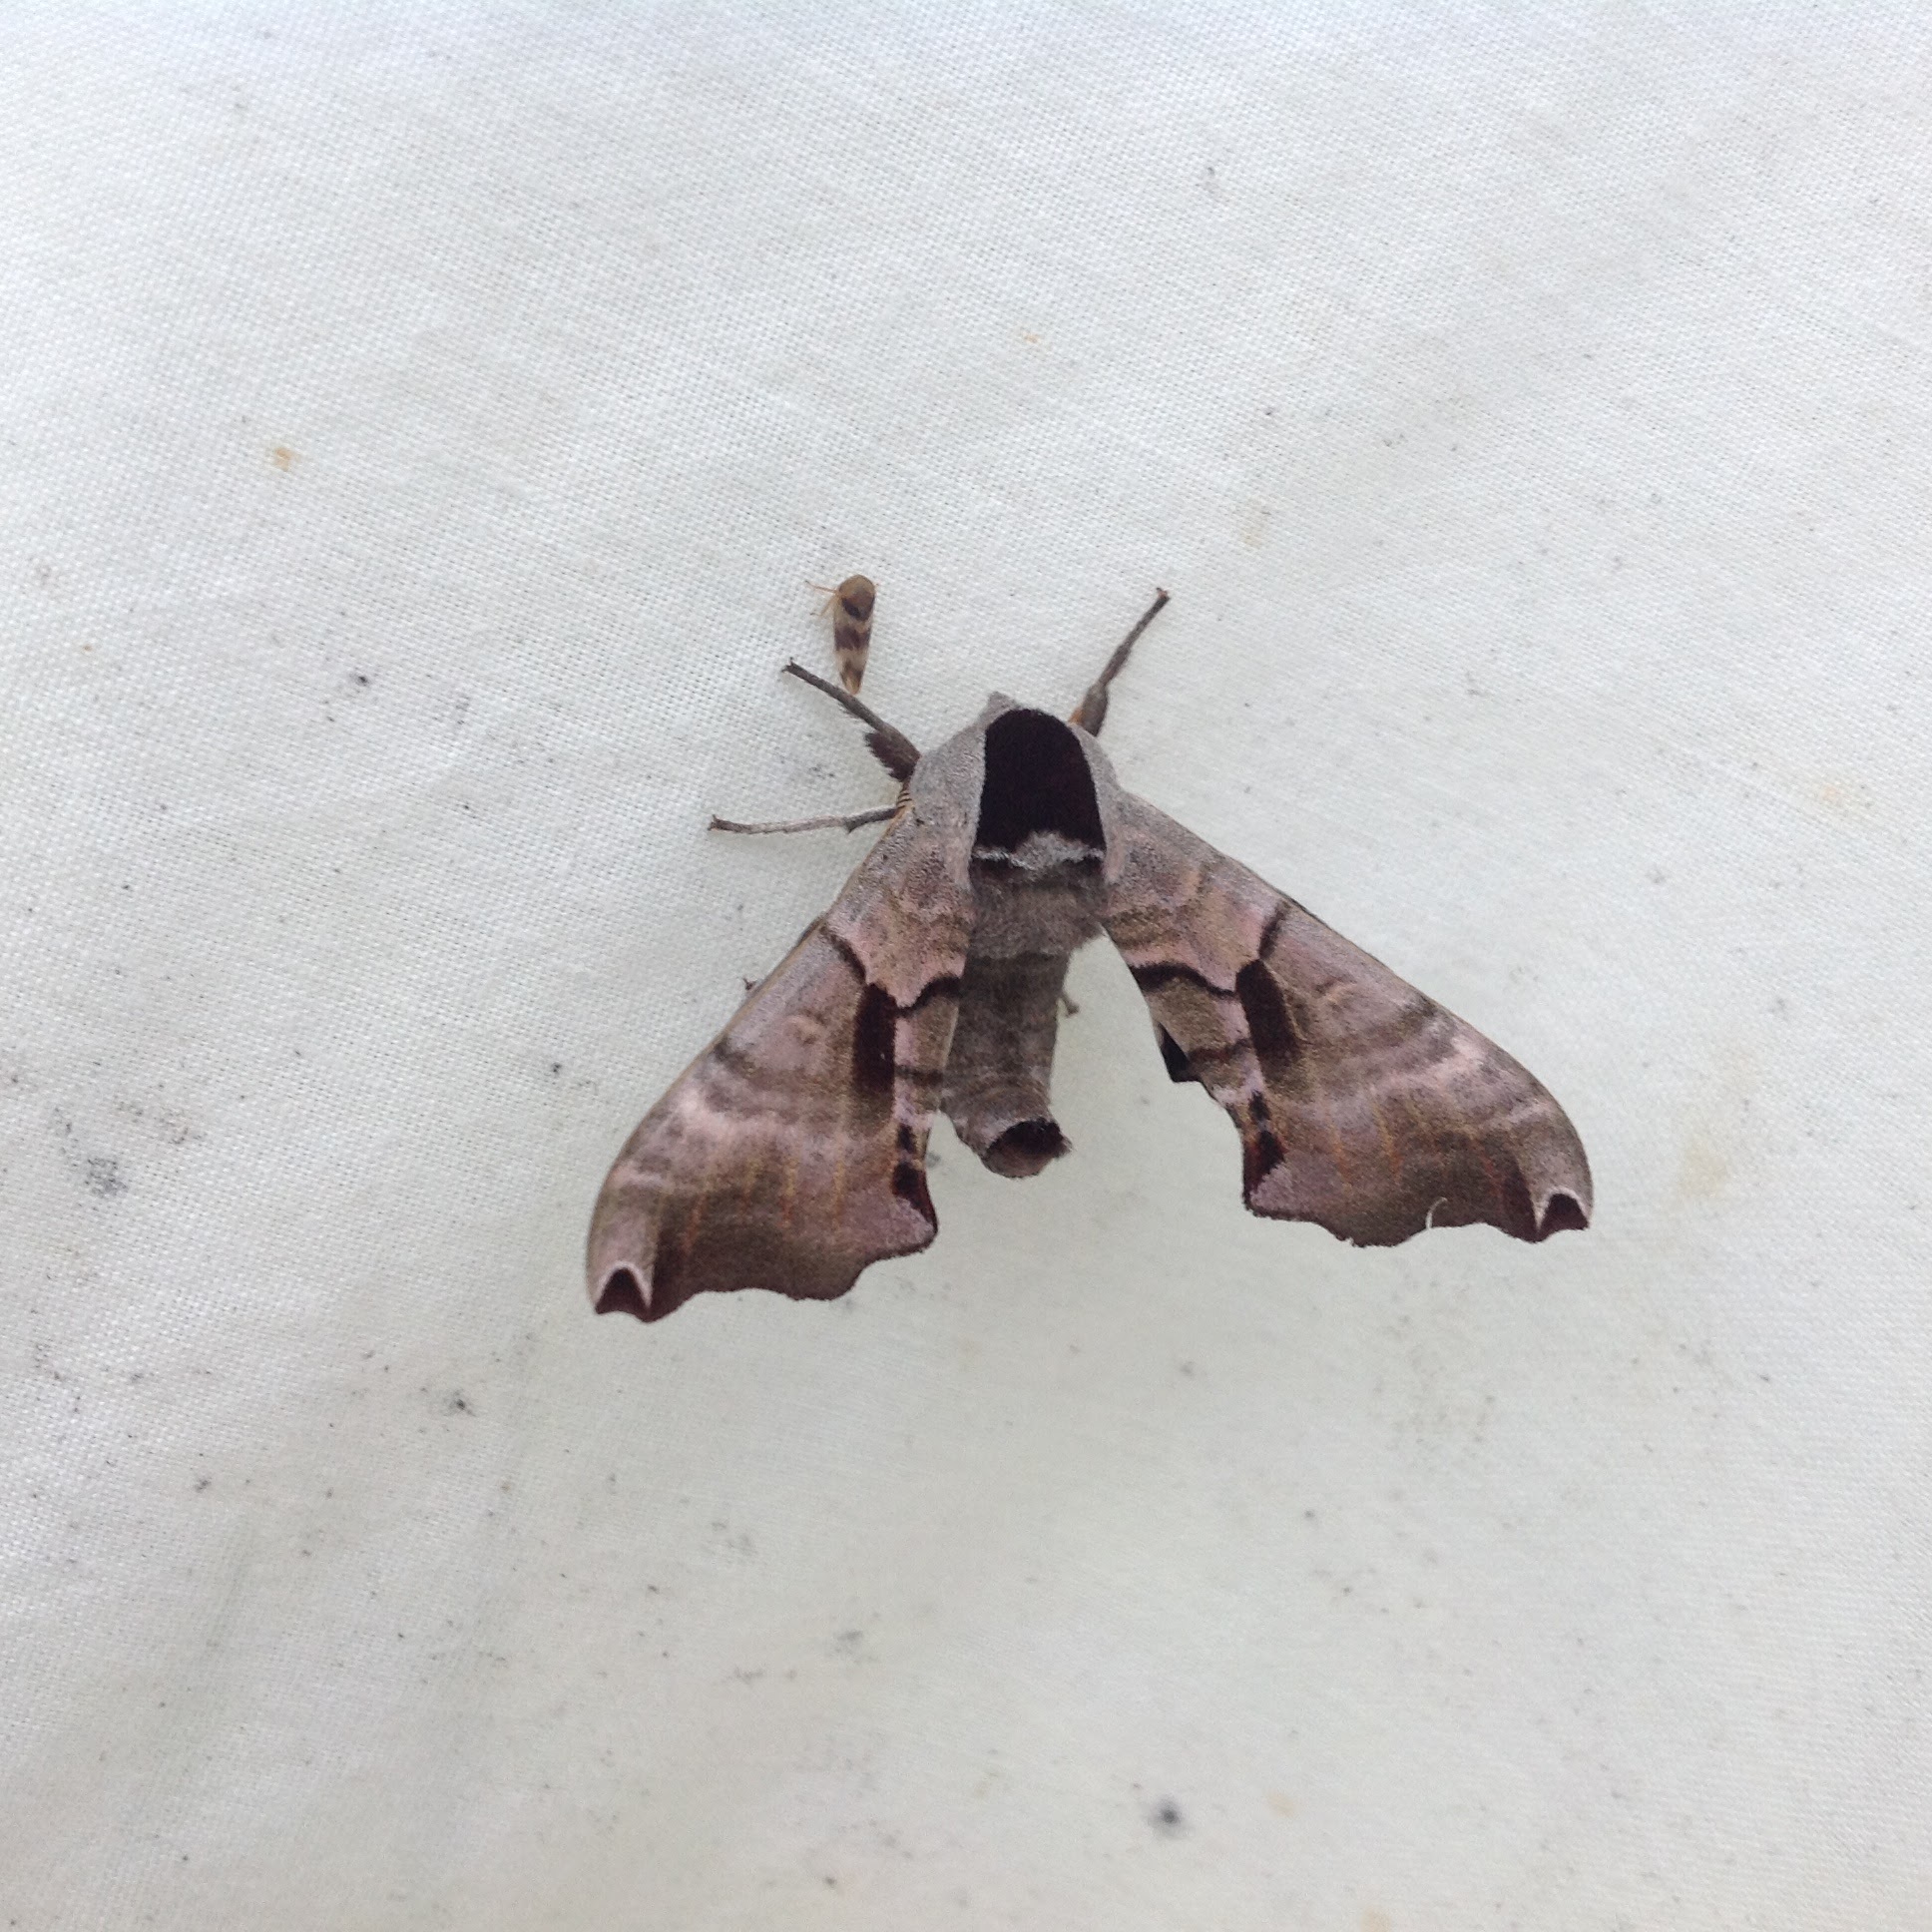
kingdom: Animalia
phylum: Arthropoda
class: Insecta
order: Lepidoptera
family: Sphingidae
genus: Smerinthus
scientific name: Smerinthus jamaicensis
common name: Twin spotted sphinx
